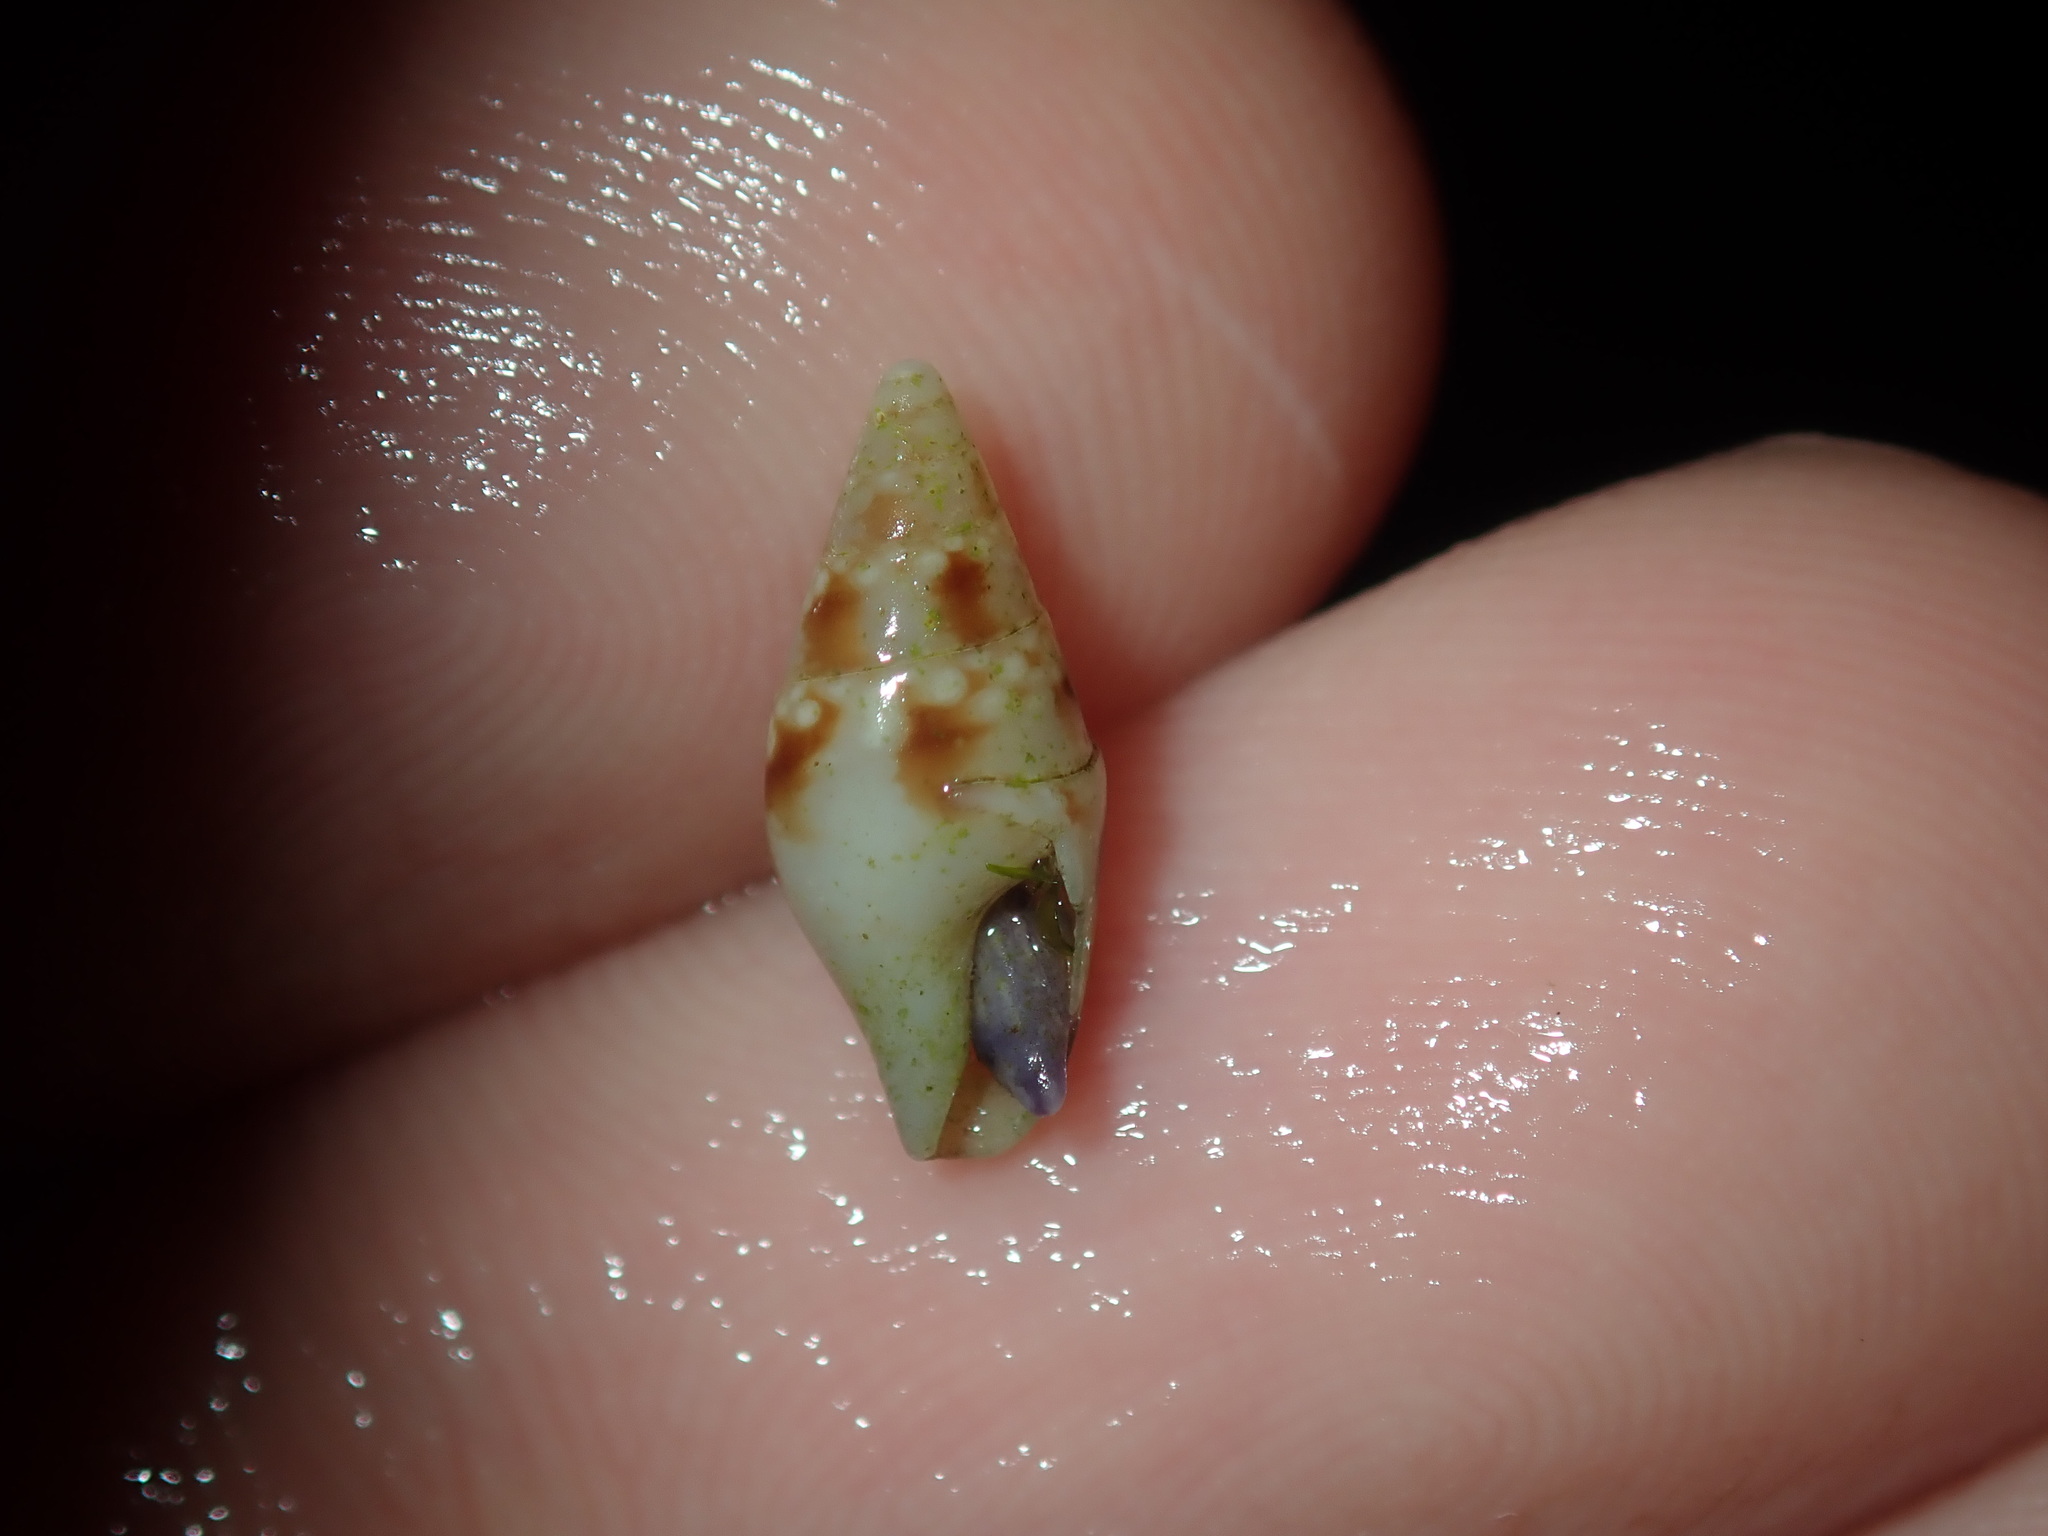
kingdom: Animalia
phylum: Mollusca
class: Gastropoda
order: Neogastropoda
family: Columbellidae
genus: Mitrella
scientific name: Mitrella tayloriana
